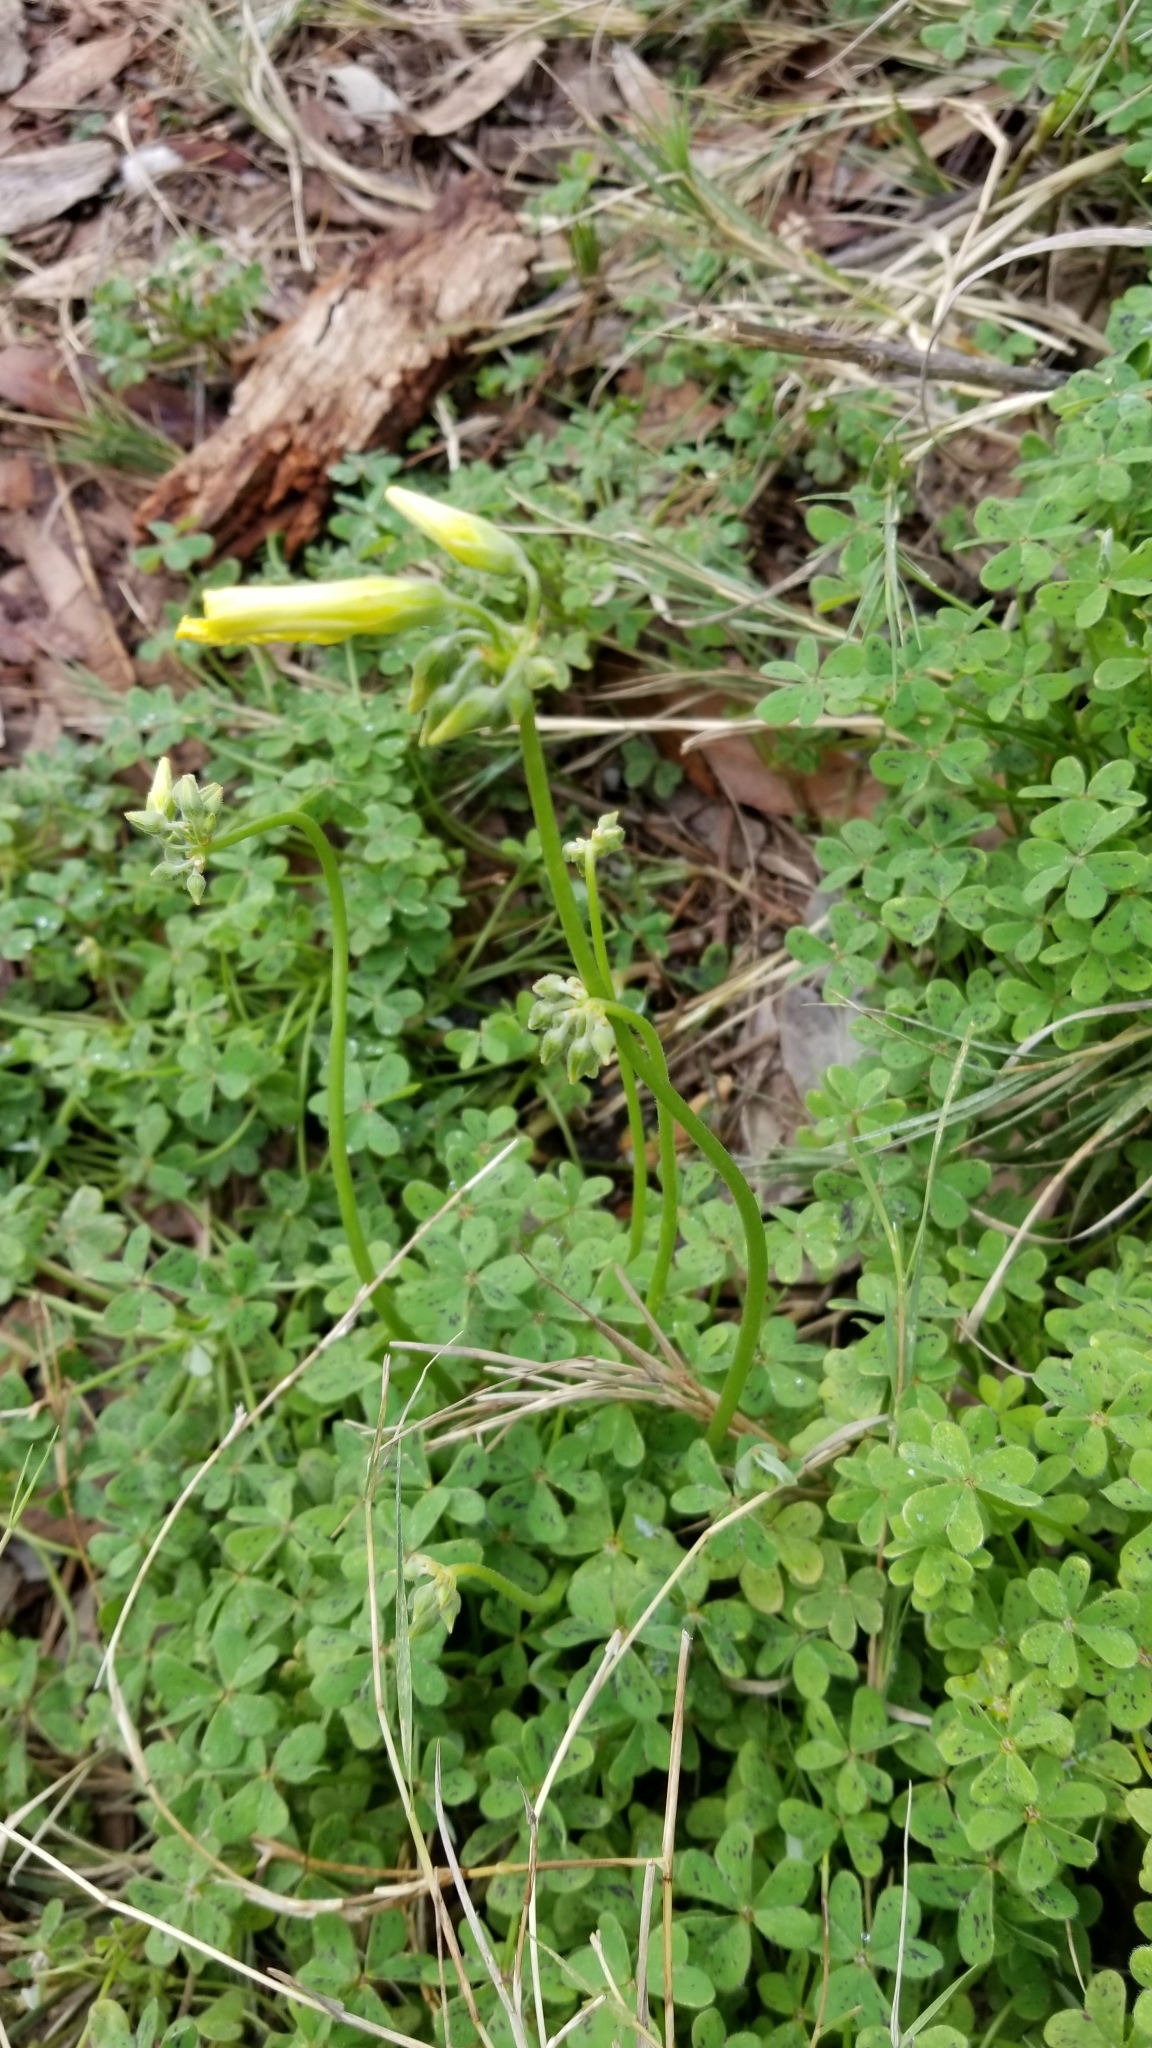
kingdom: Plantae
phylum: Tracheophyta
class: Magnoliopsida
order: Oxalidales
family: Oxalidaceae
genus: Oxalis
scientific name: Oxalis pes-caprae
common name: Bermuda-buttercup
